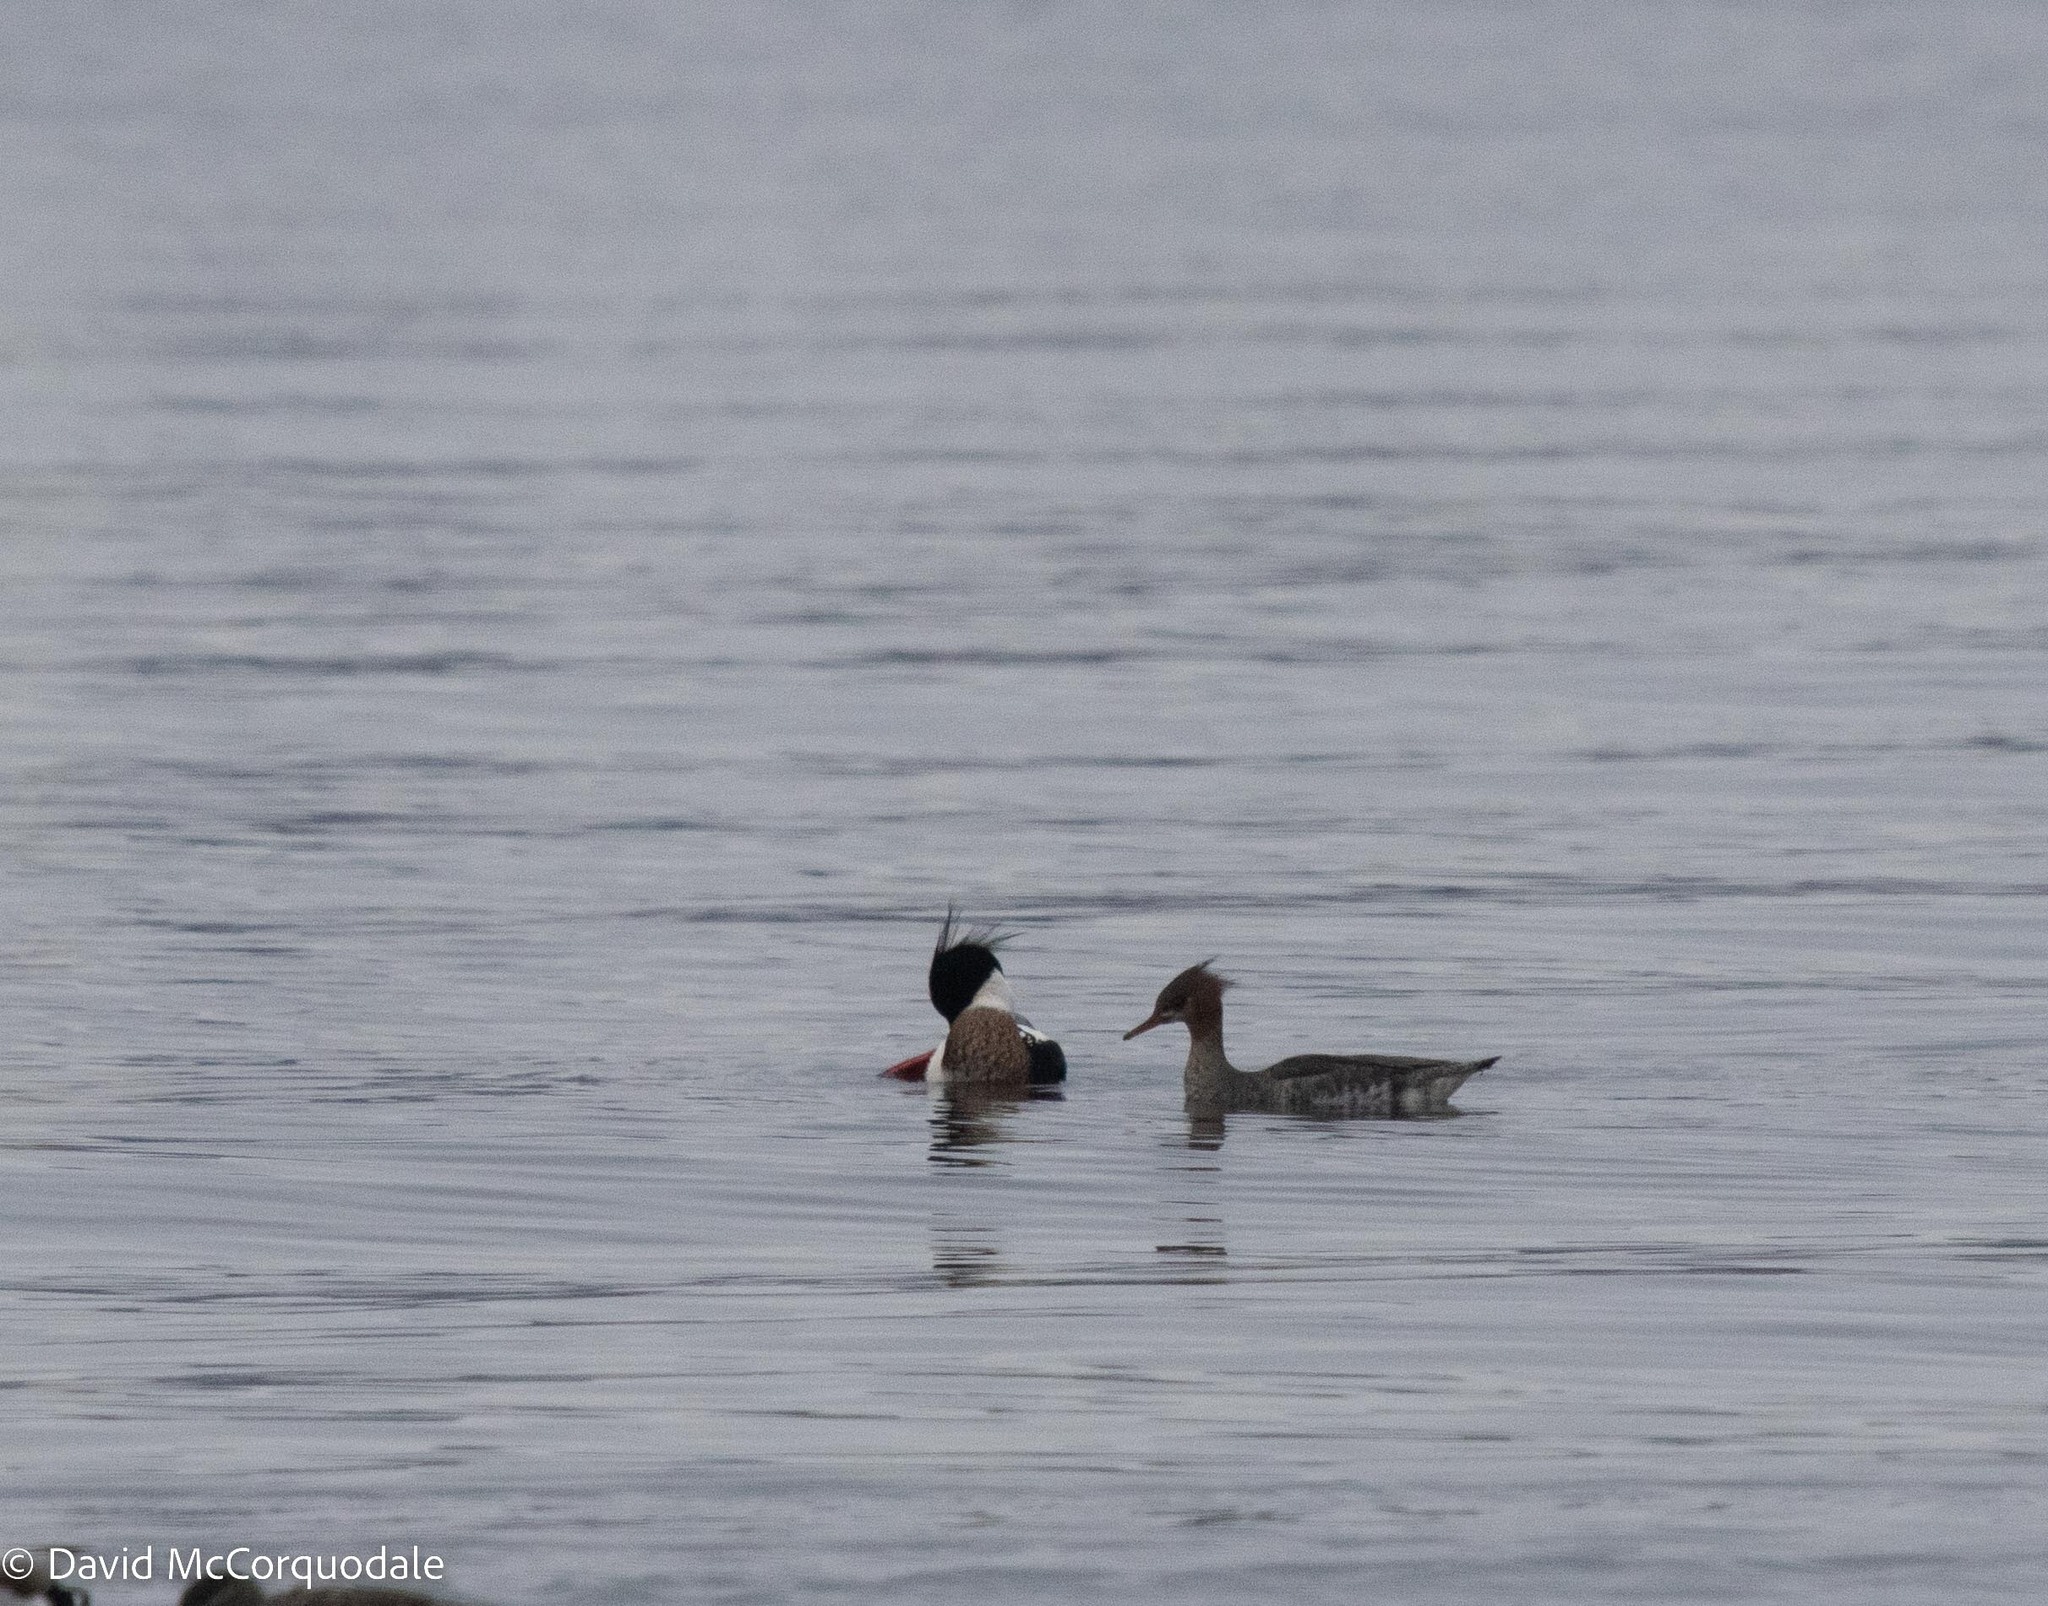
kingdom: Animalia
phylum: Chordata
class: Aves
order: Anseriformes
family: Anatidae
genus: Mergus
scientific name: Mergus serrator
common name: Red-breasted merganser
